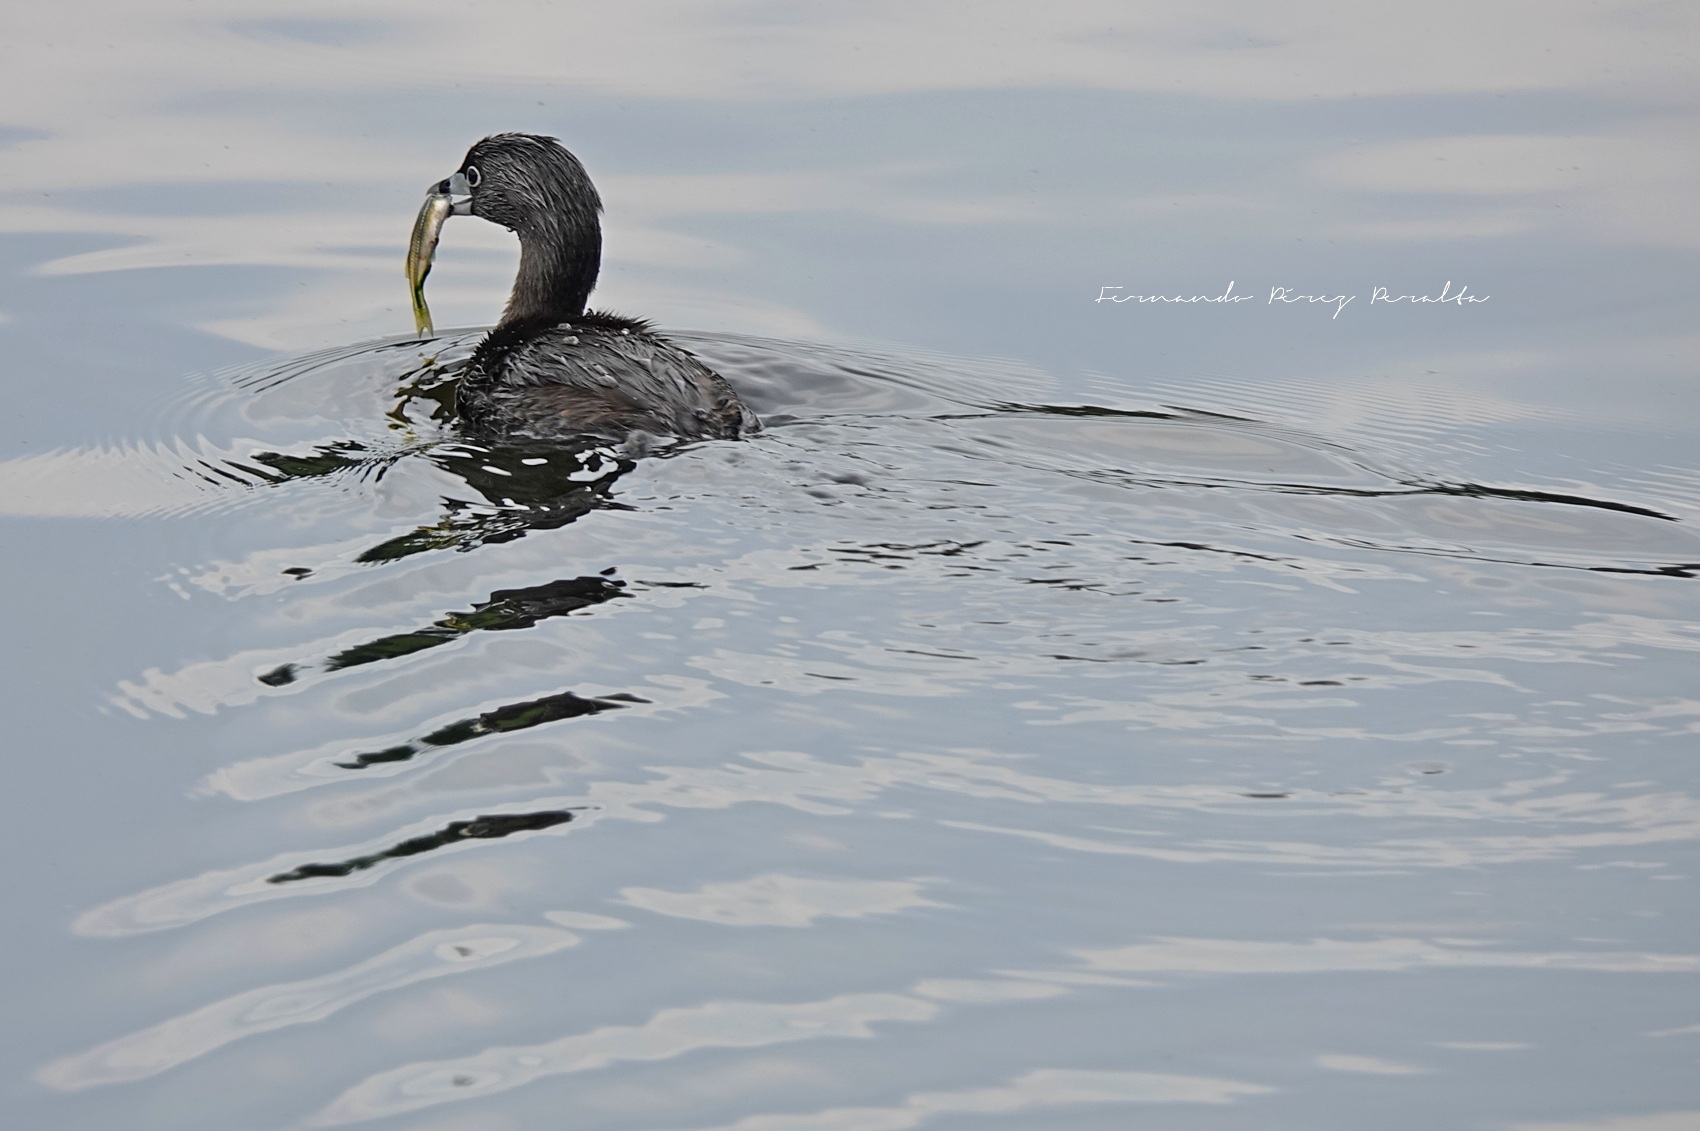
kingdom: Animalia
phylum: Chordata
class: Aves
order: Podicipediformes
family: Podicipedidae
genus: Podilymbus
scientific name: Podilymbus podiceps
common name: Pied-billed grebe
